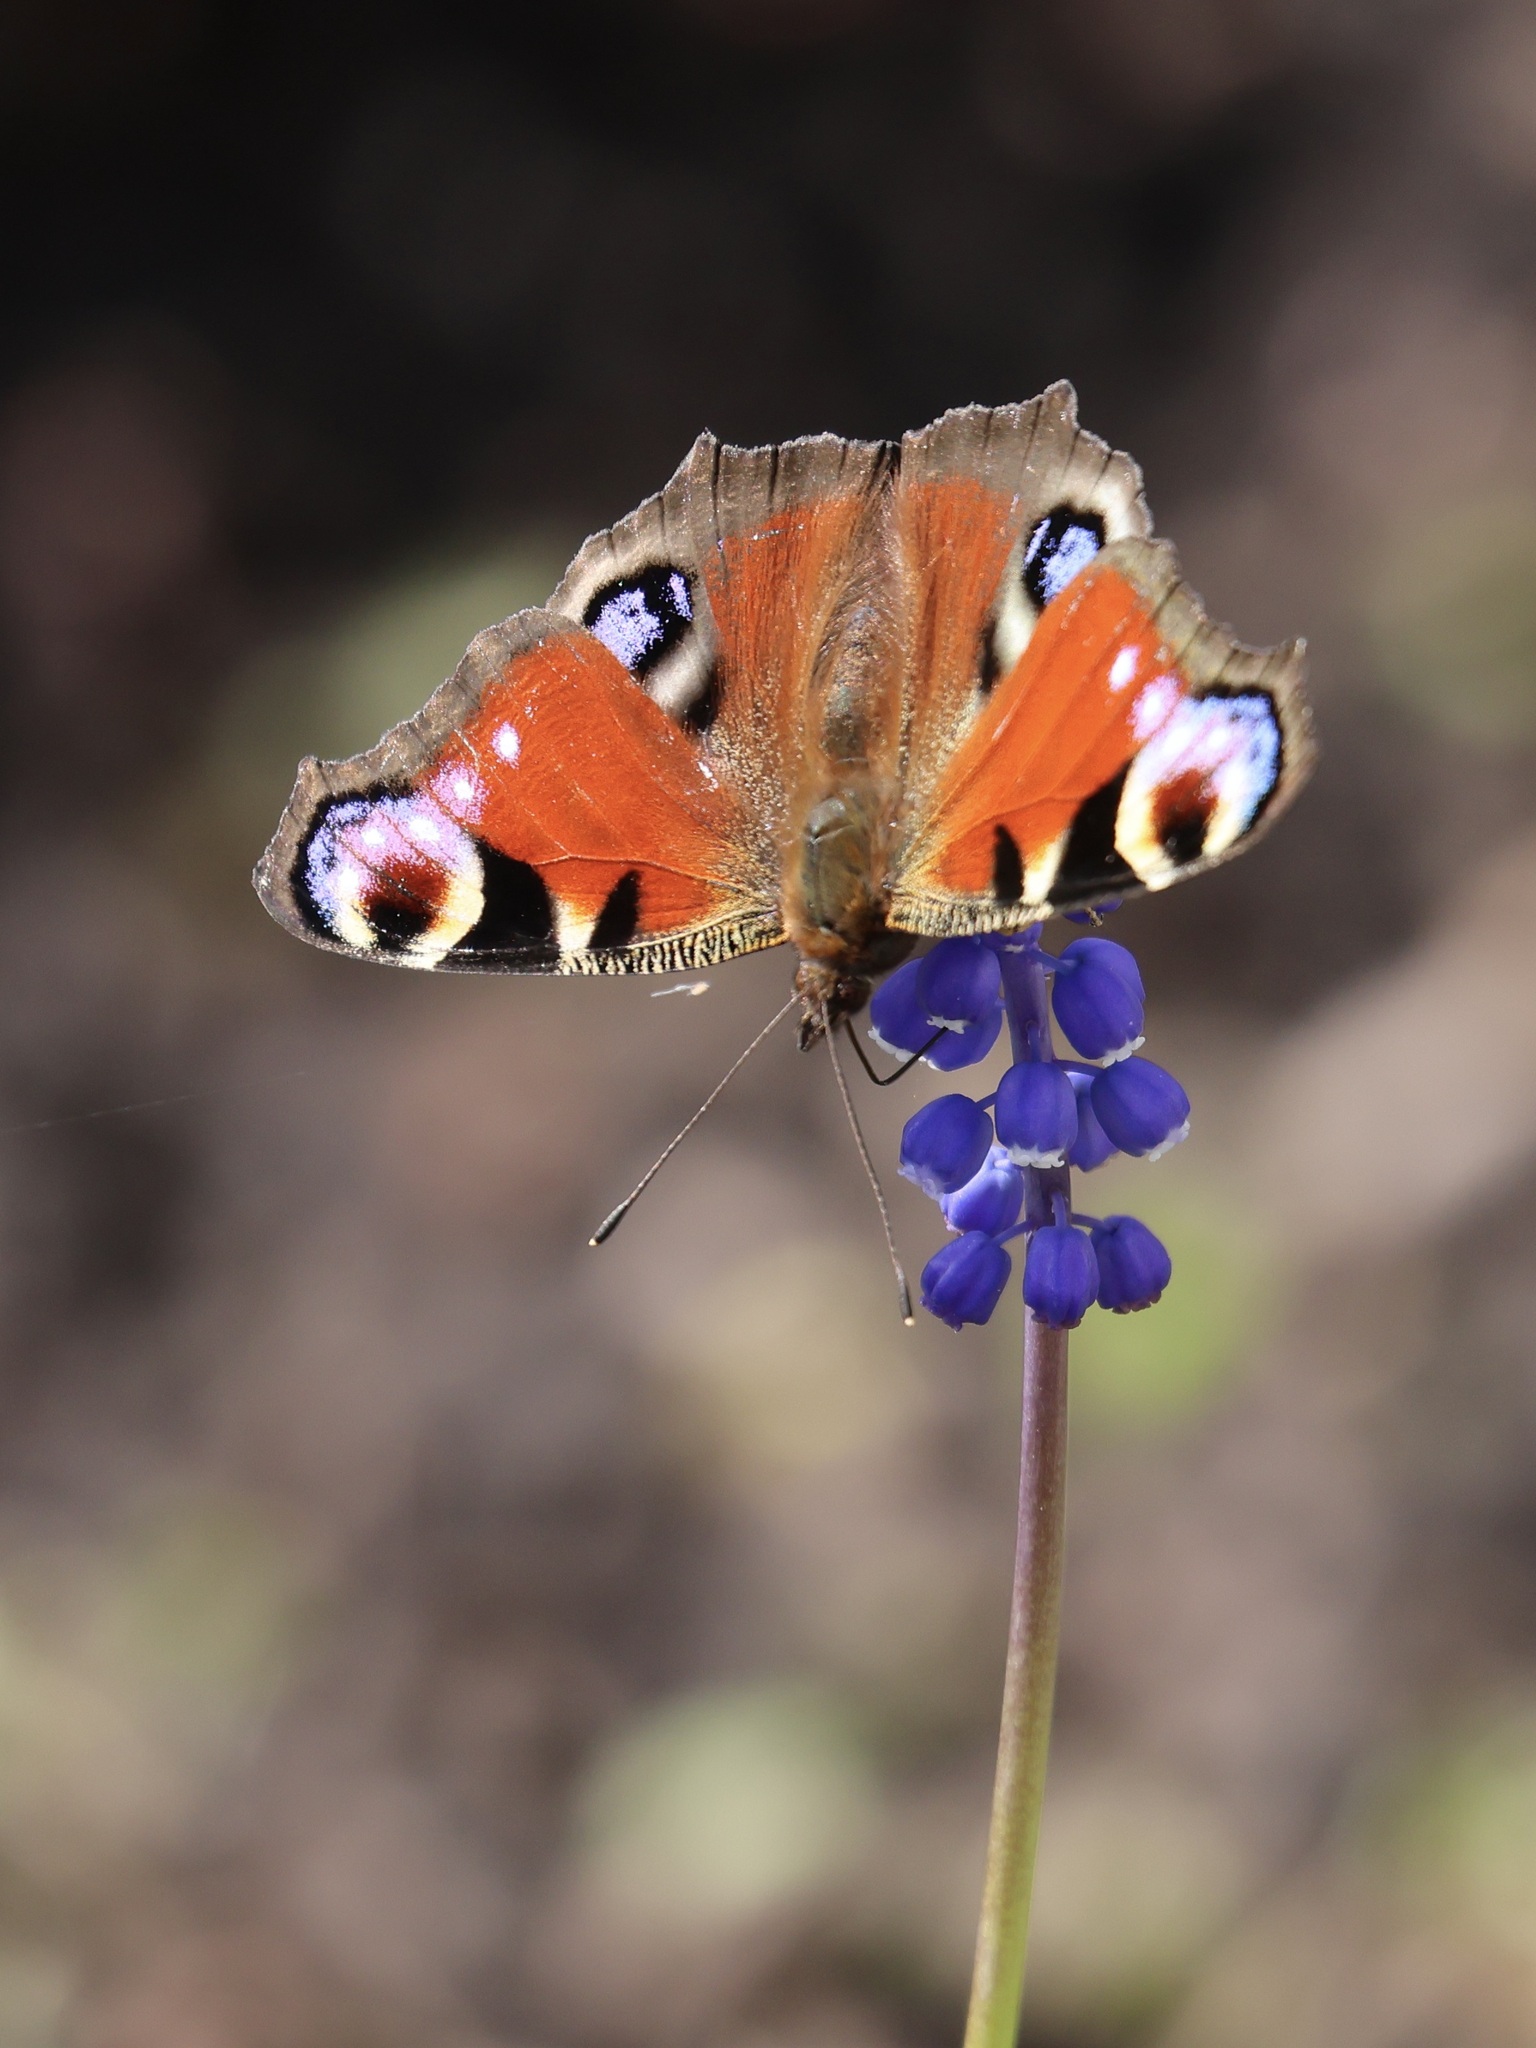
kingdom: Animalia
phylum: Arthropoda
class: Insecta
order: Lepidoptera
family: Nymphalidae
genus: Aglais
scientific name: Aglais io
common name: Peacock
